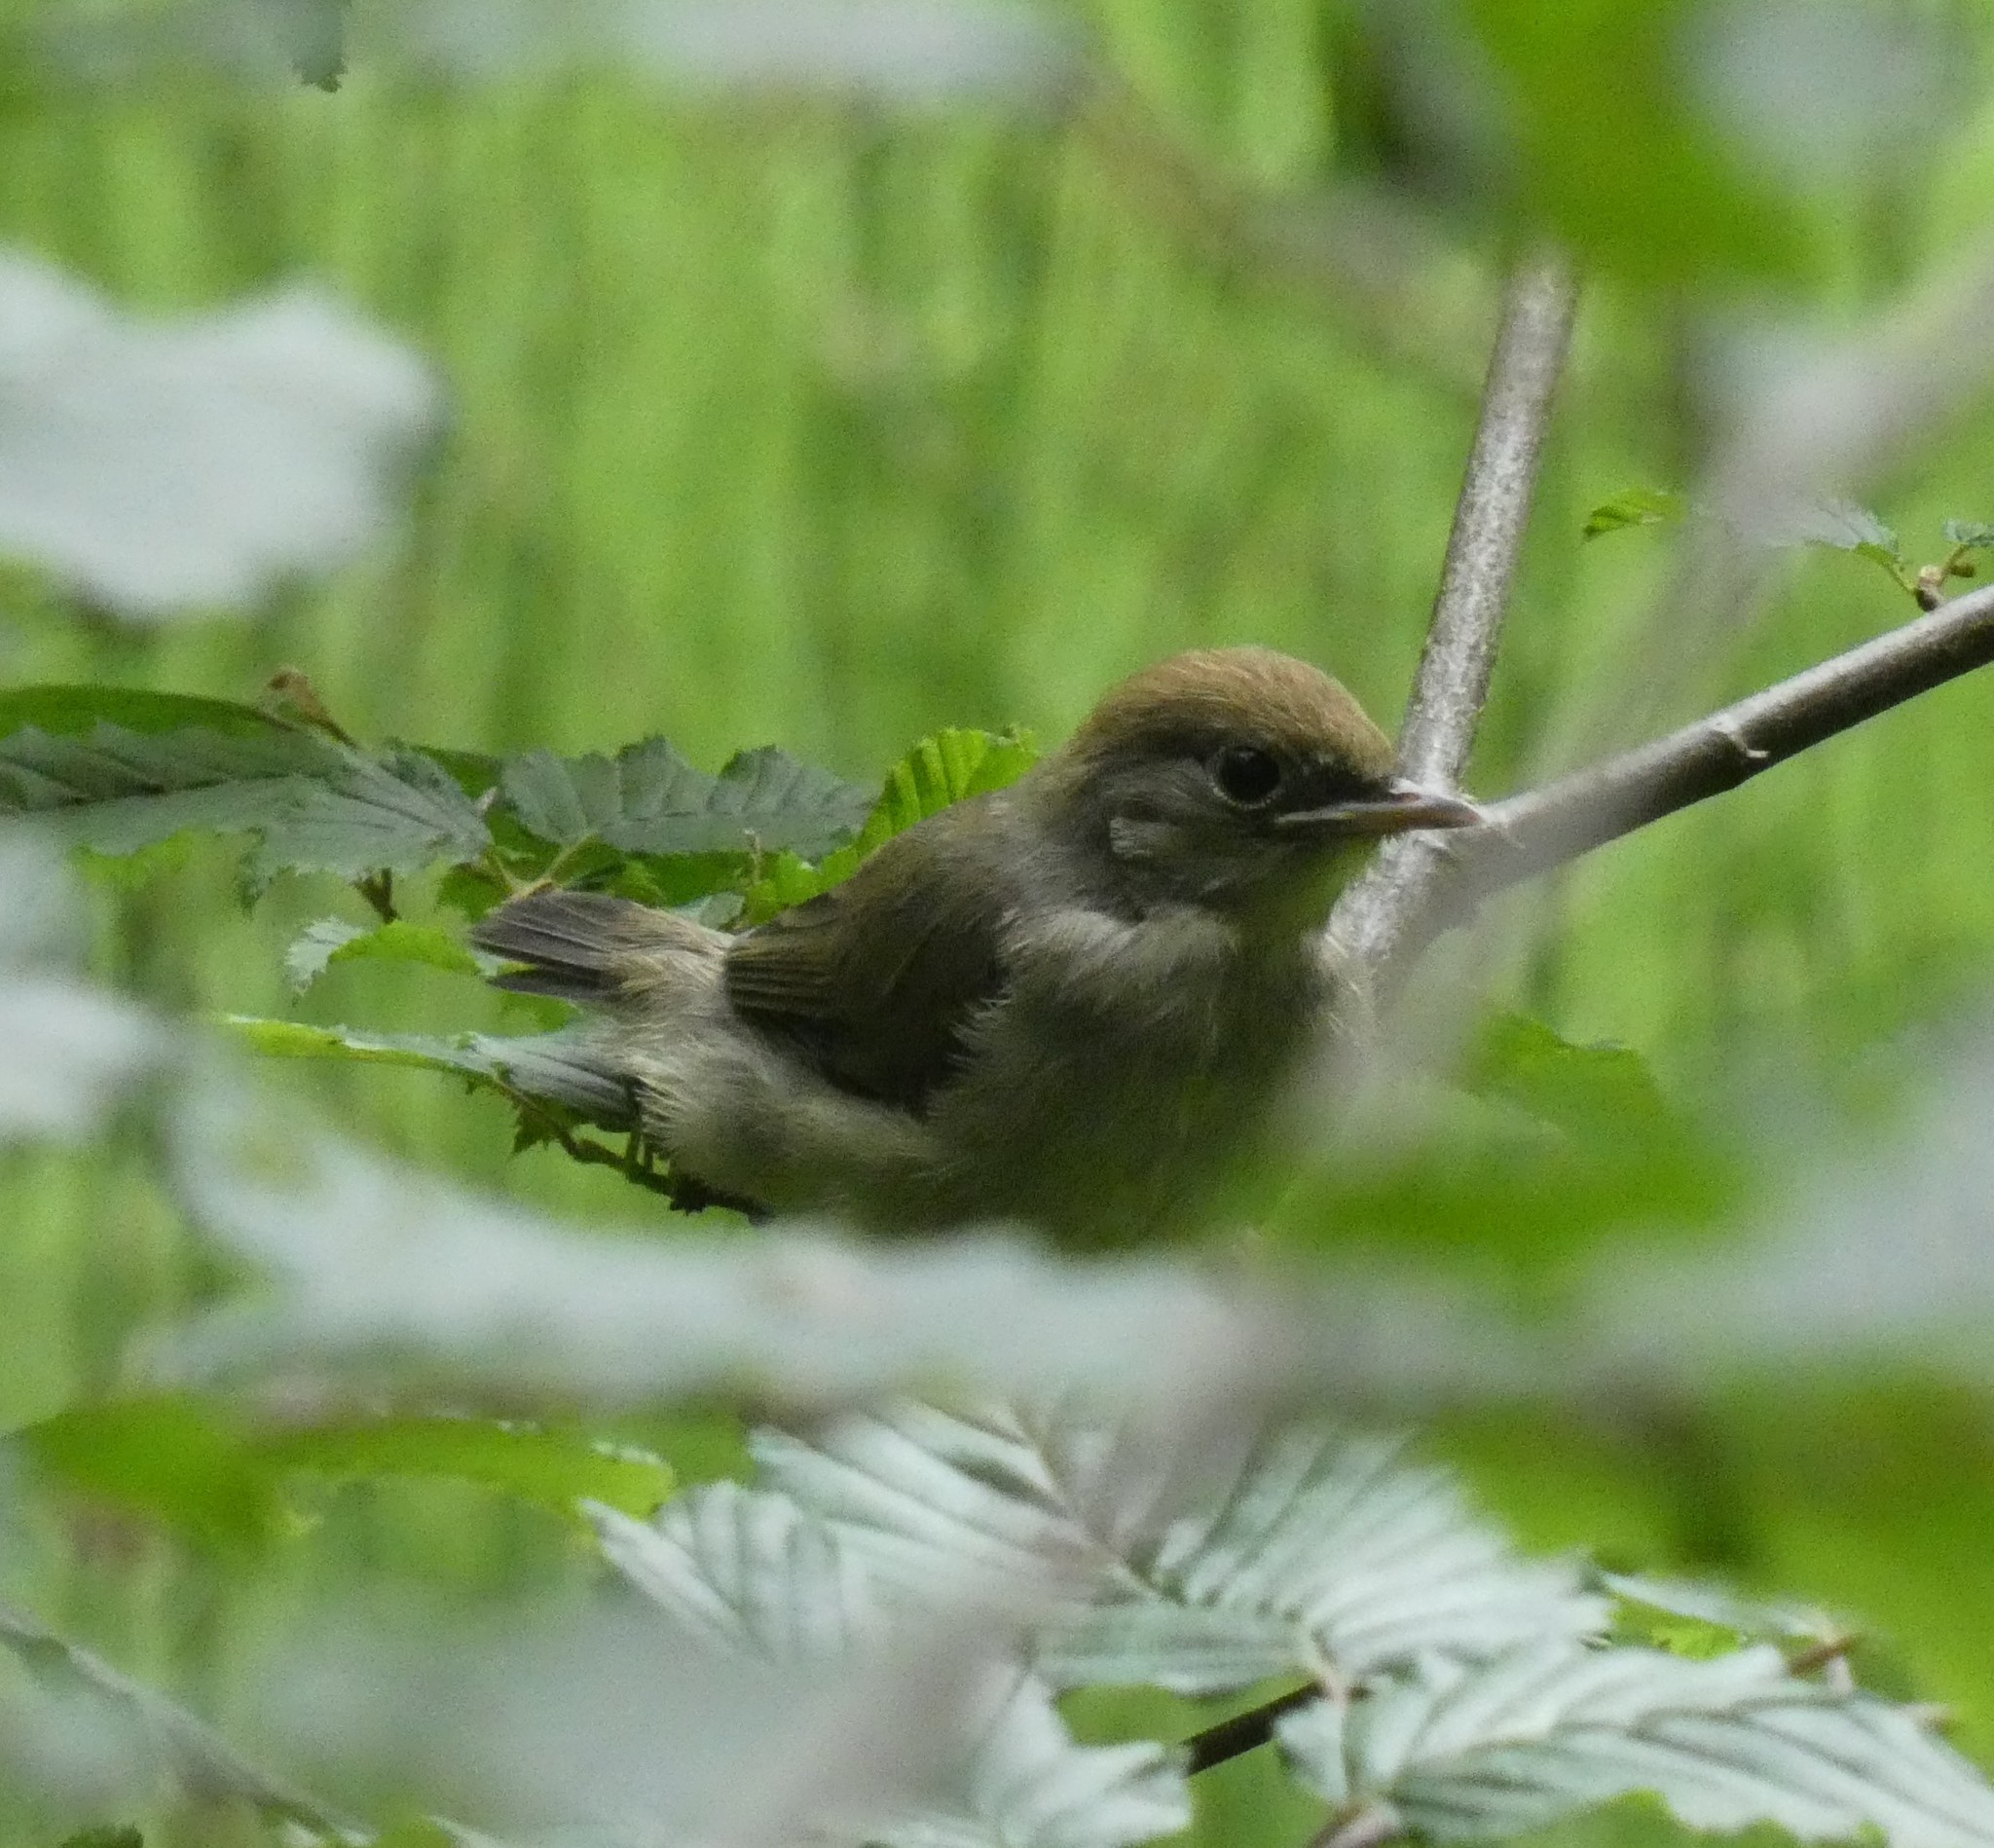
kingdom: Animalia
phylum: Chordata
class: Aves
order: Passeriformes
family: Sylviidae
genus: Sylvia
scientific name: Sylvia atricapilla
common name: Eurasian blackcap
